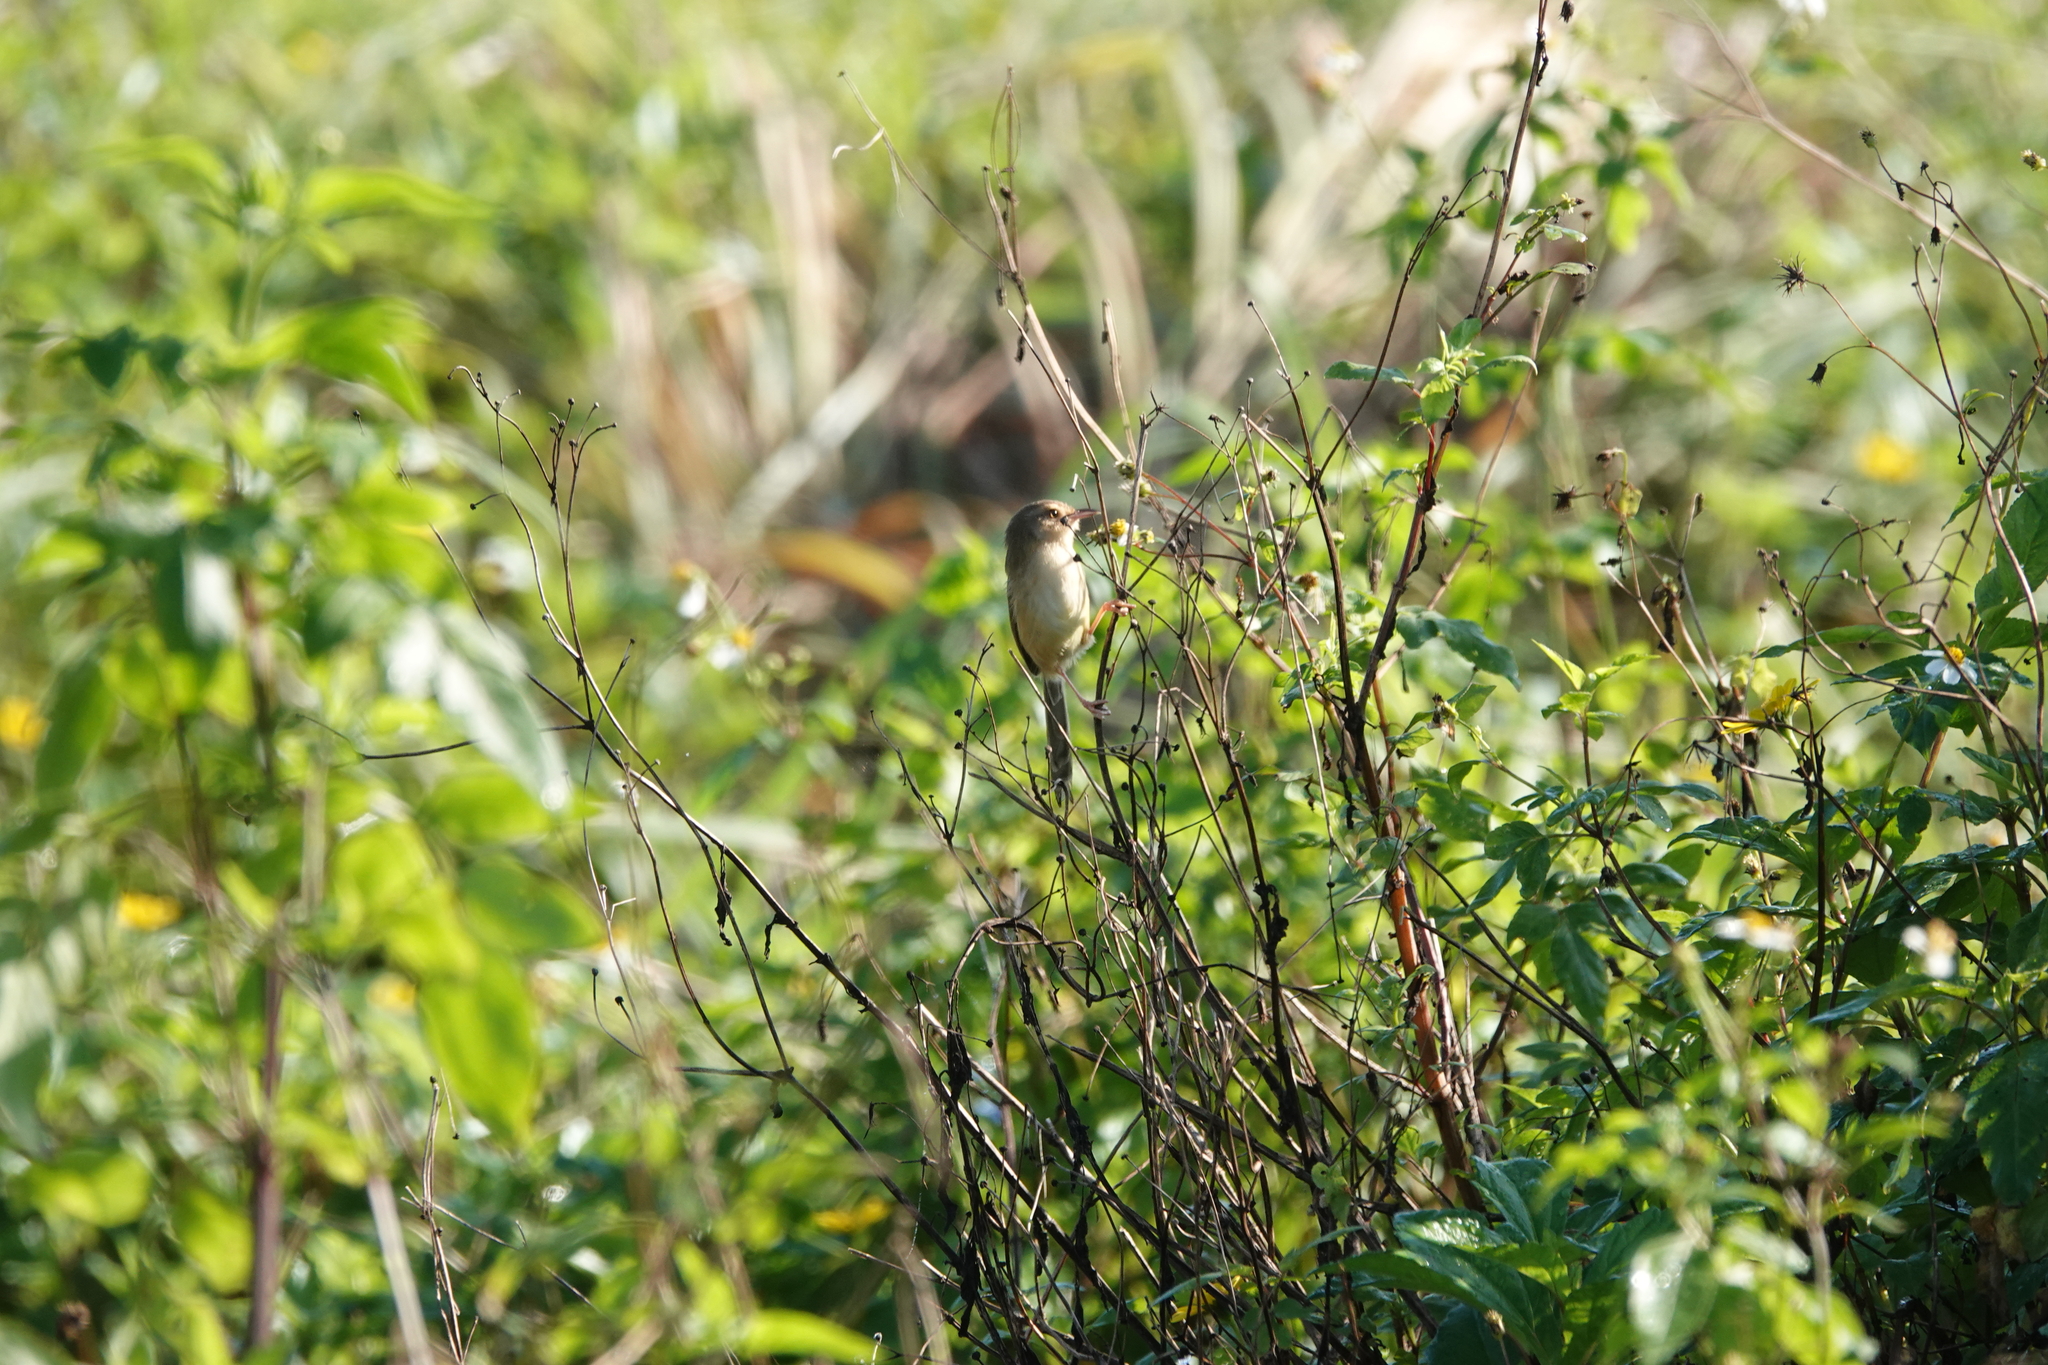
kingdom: Animalia
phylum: Chordata
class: Aves
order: Passeriformes
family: Cisticolidae
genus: Prinia
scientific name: Prinia inornata
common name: Plain prinia
